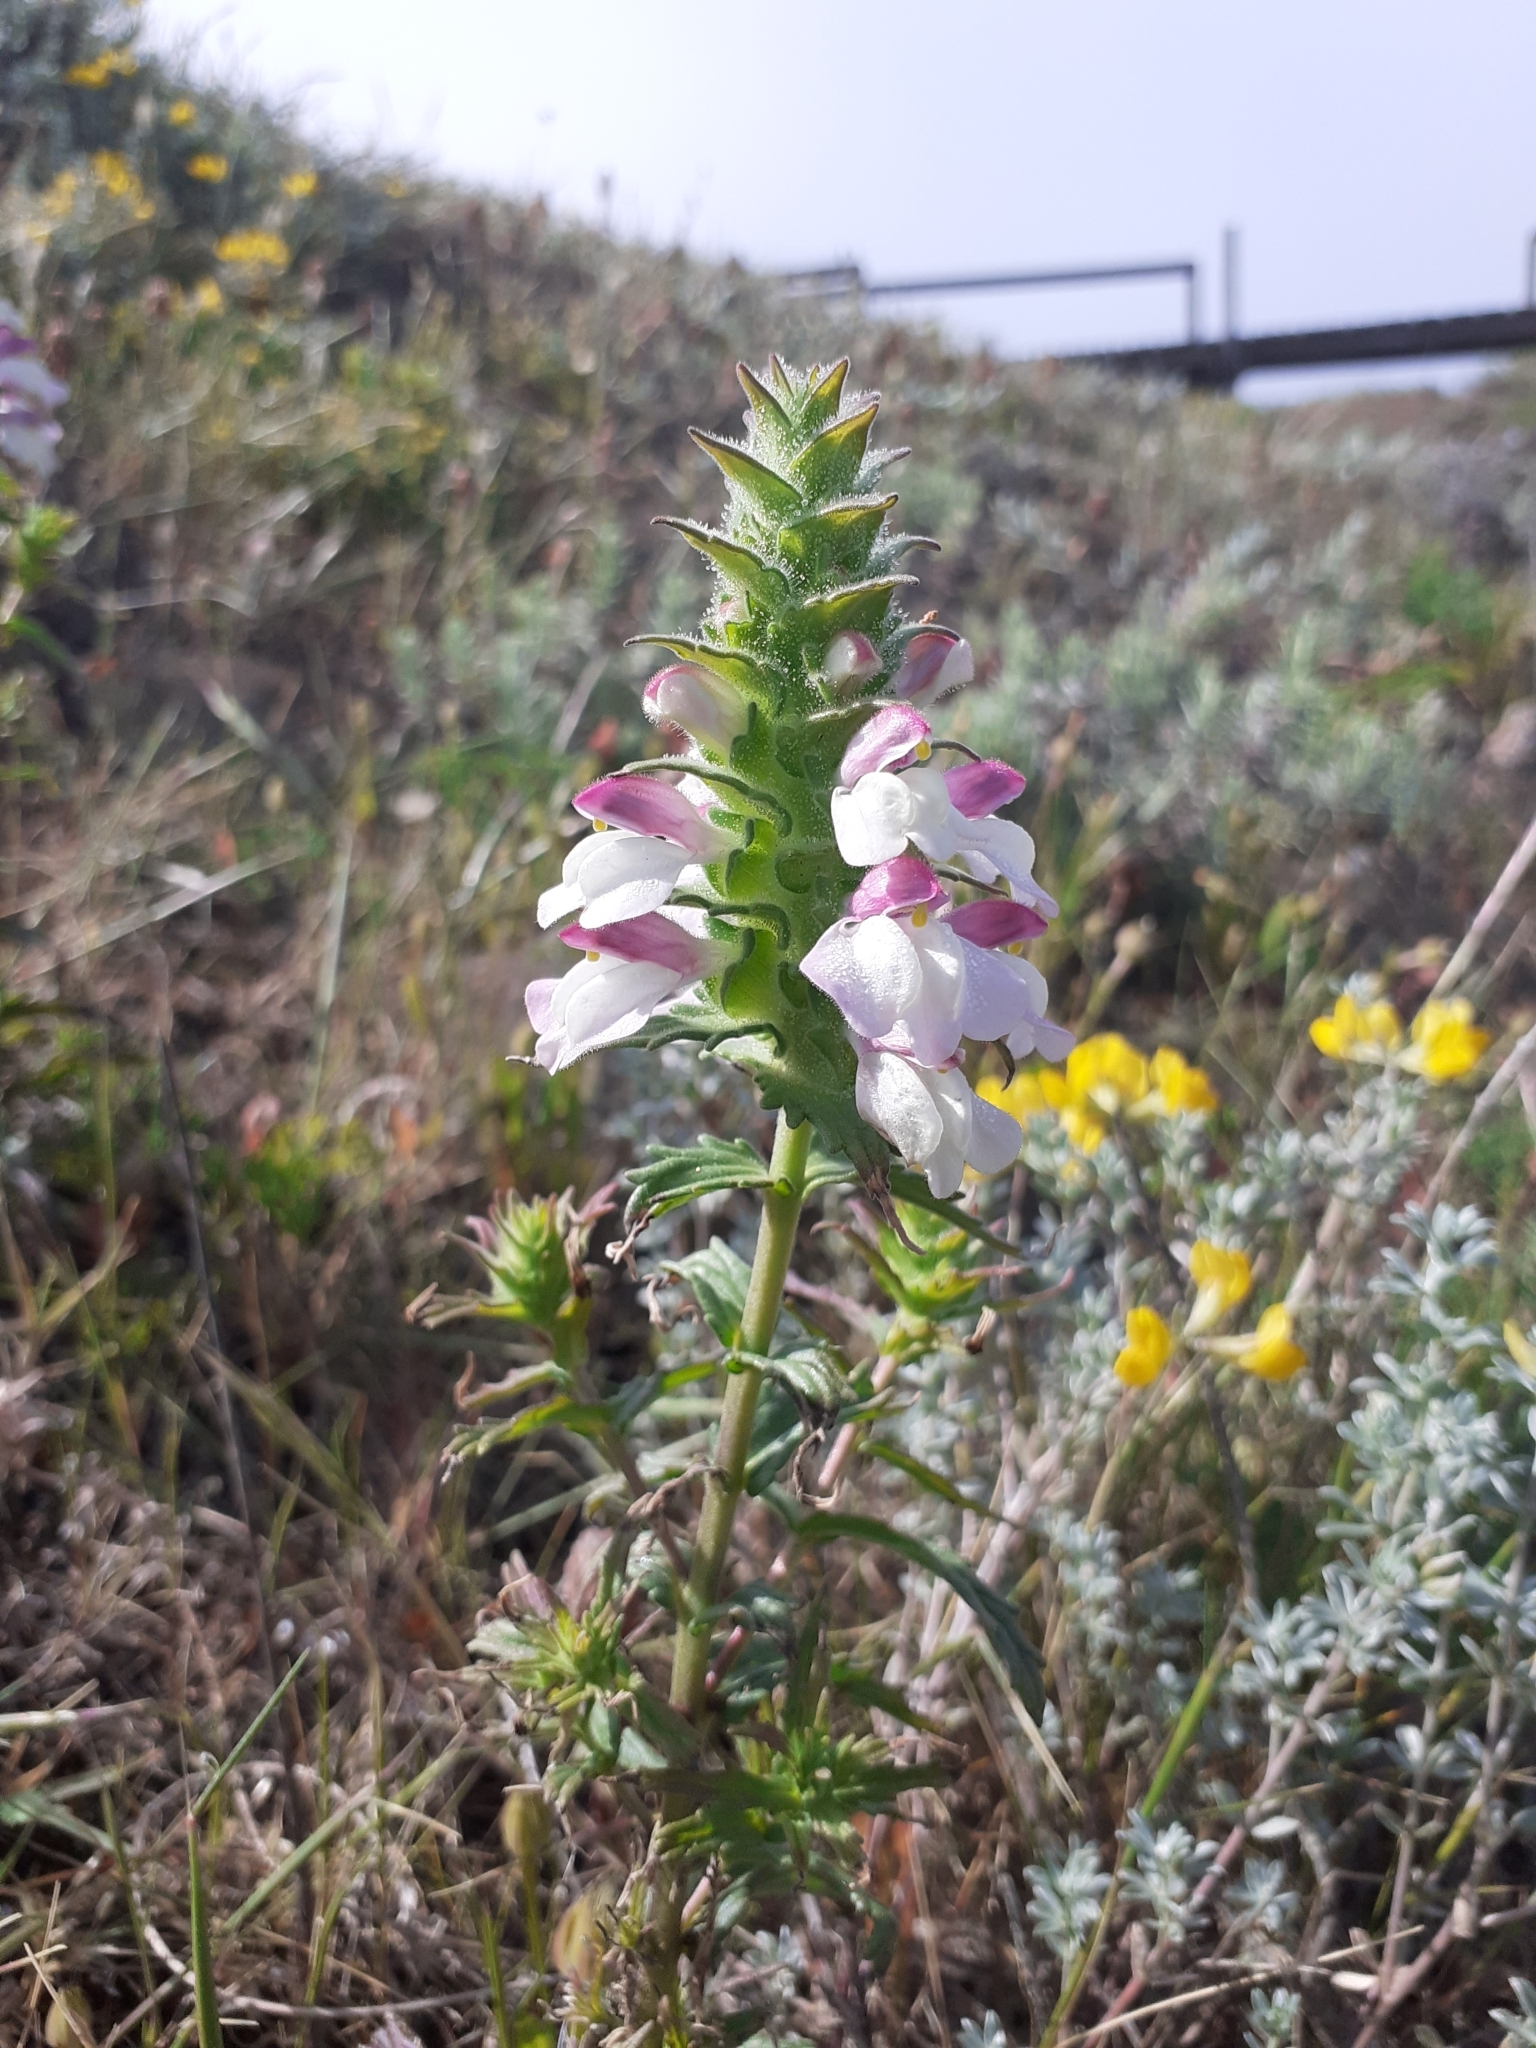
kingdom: Plantae
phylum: Tracheophyta
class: Magnoliopsida
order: Lamiales
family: Orobanchaceae
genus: Bellardia
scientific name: Bellardia trixago
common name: Mediterranean lineseed
